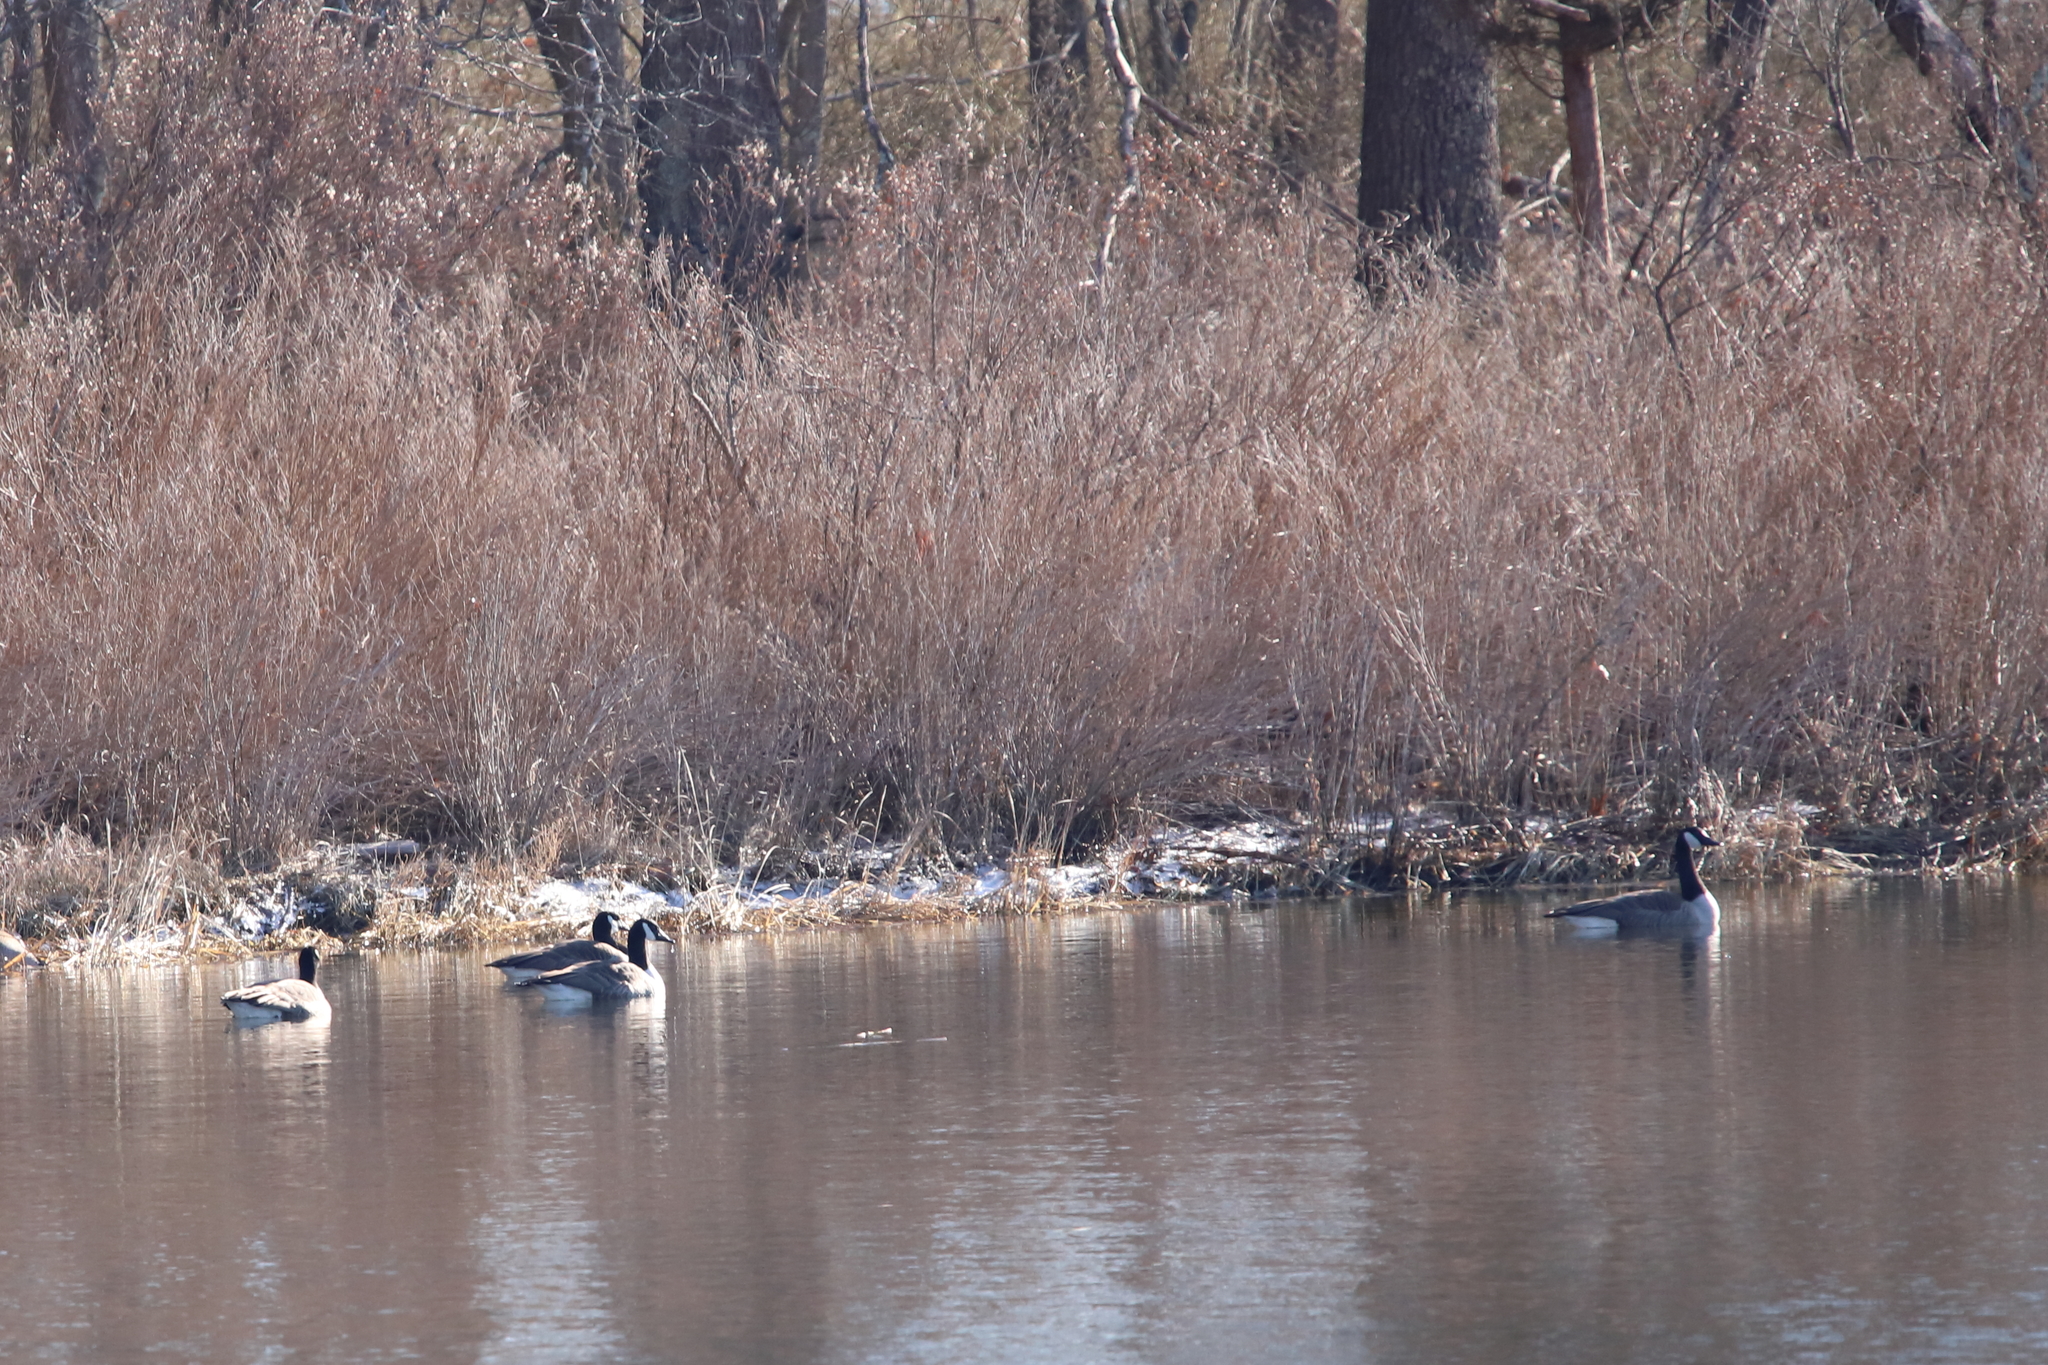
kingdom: Animalia
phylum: Chordata
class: Aves
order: Anseriformes
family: Anatidae
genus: Branta
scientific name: Branta canadensis
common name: Canada goose
